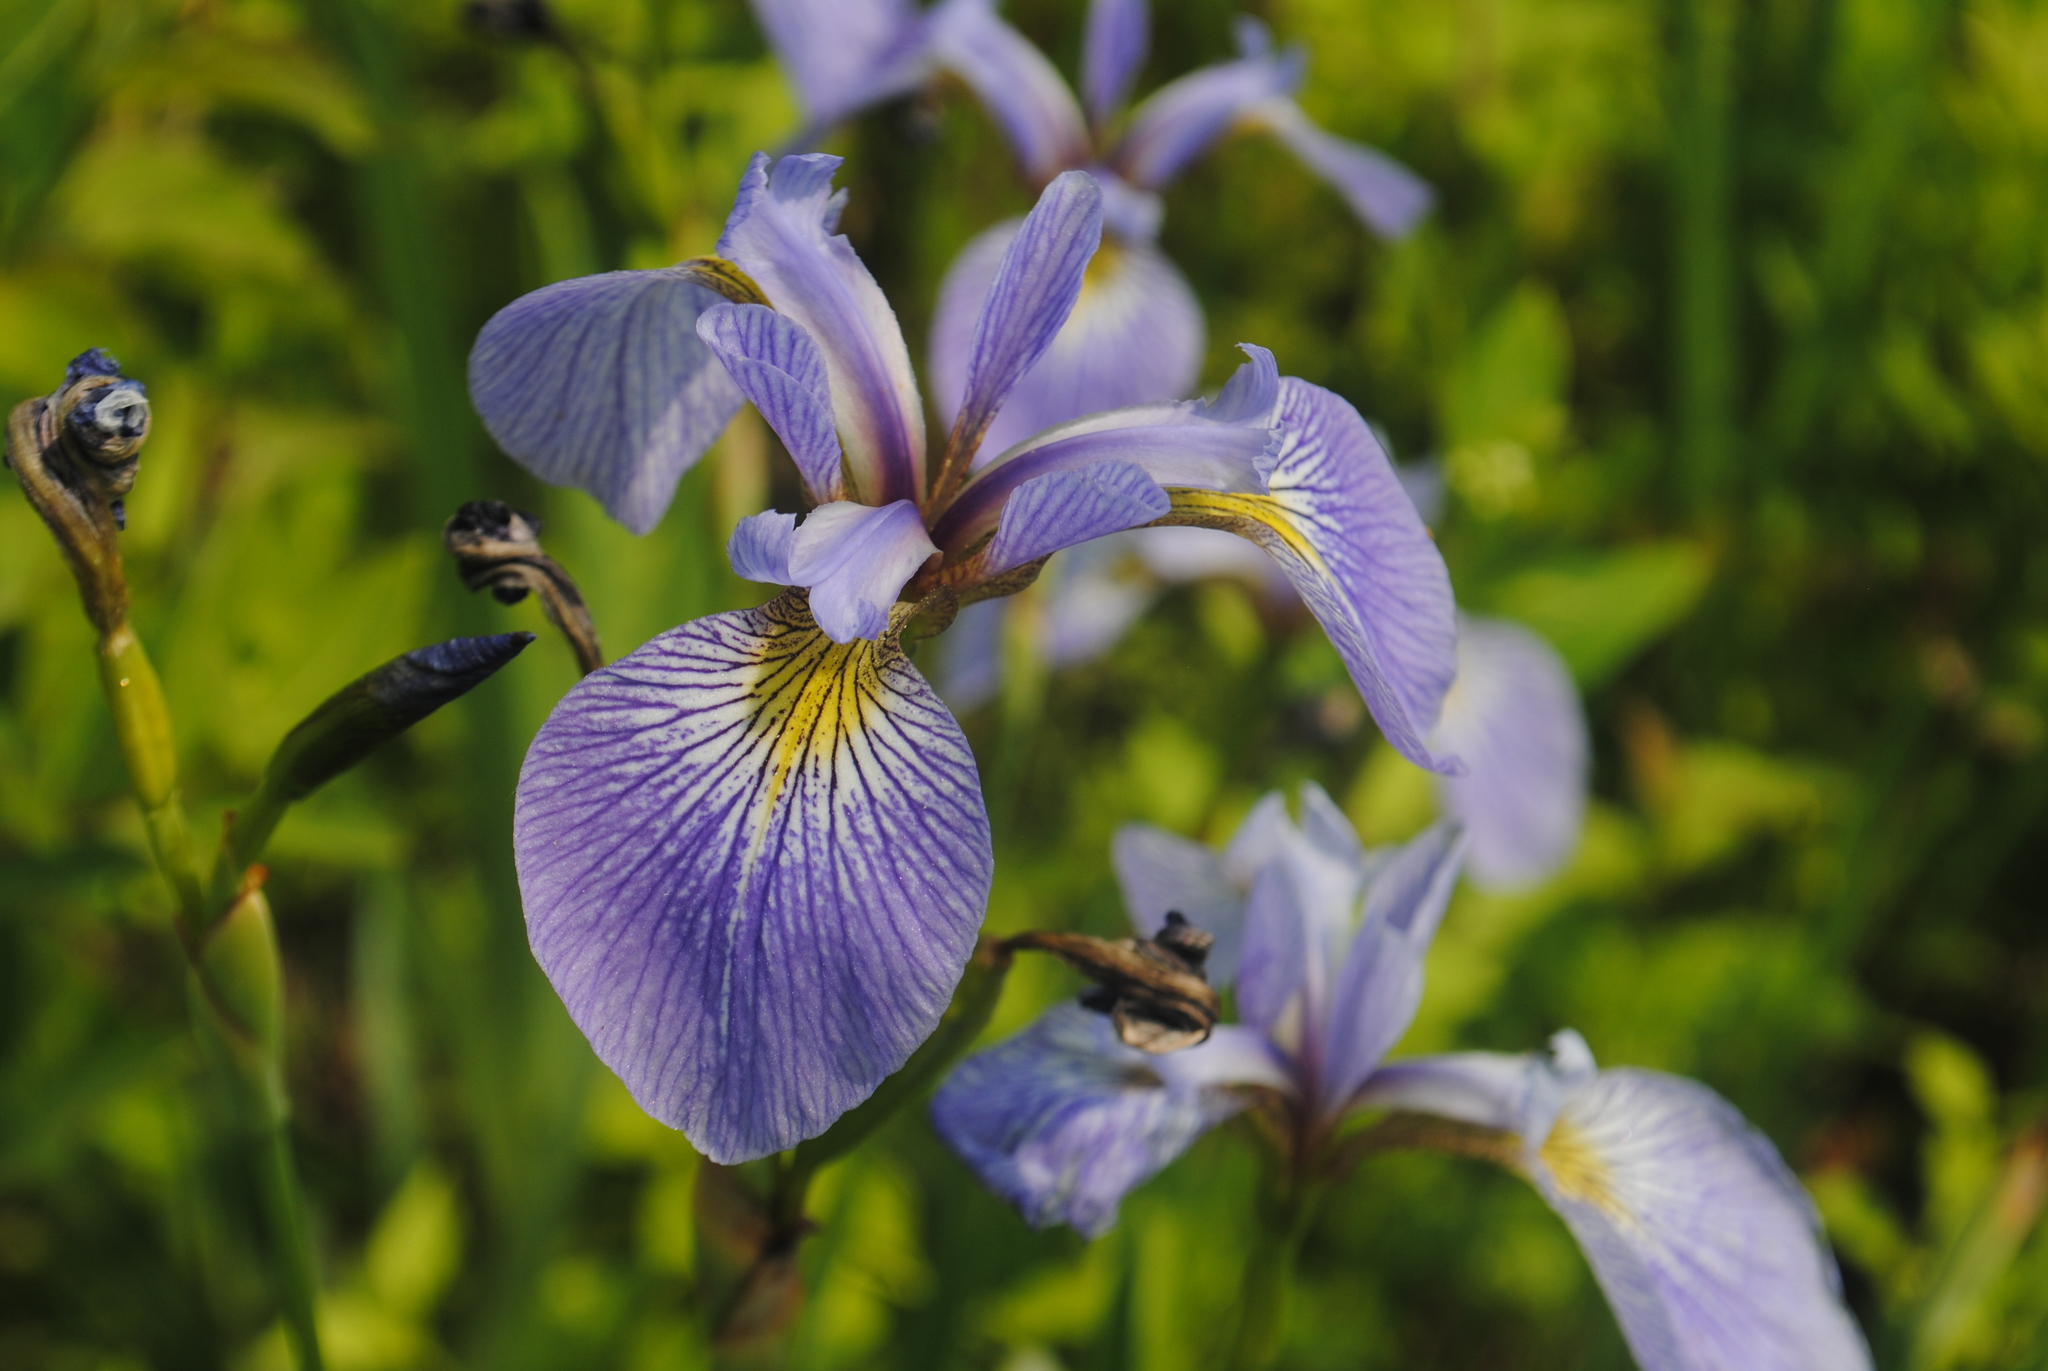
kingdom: Plantae
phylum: Tracheophyta
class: Liliopsida
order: Asparagales
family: Iridaceae
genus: Iris
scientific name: Iris versicolor
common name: Purple iris
